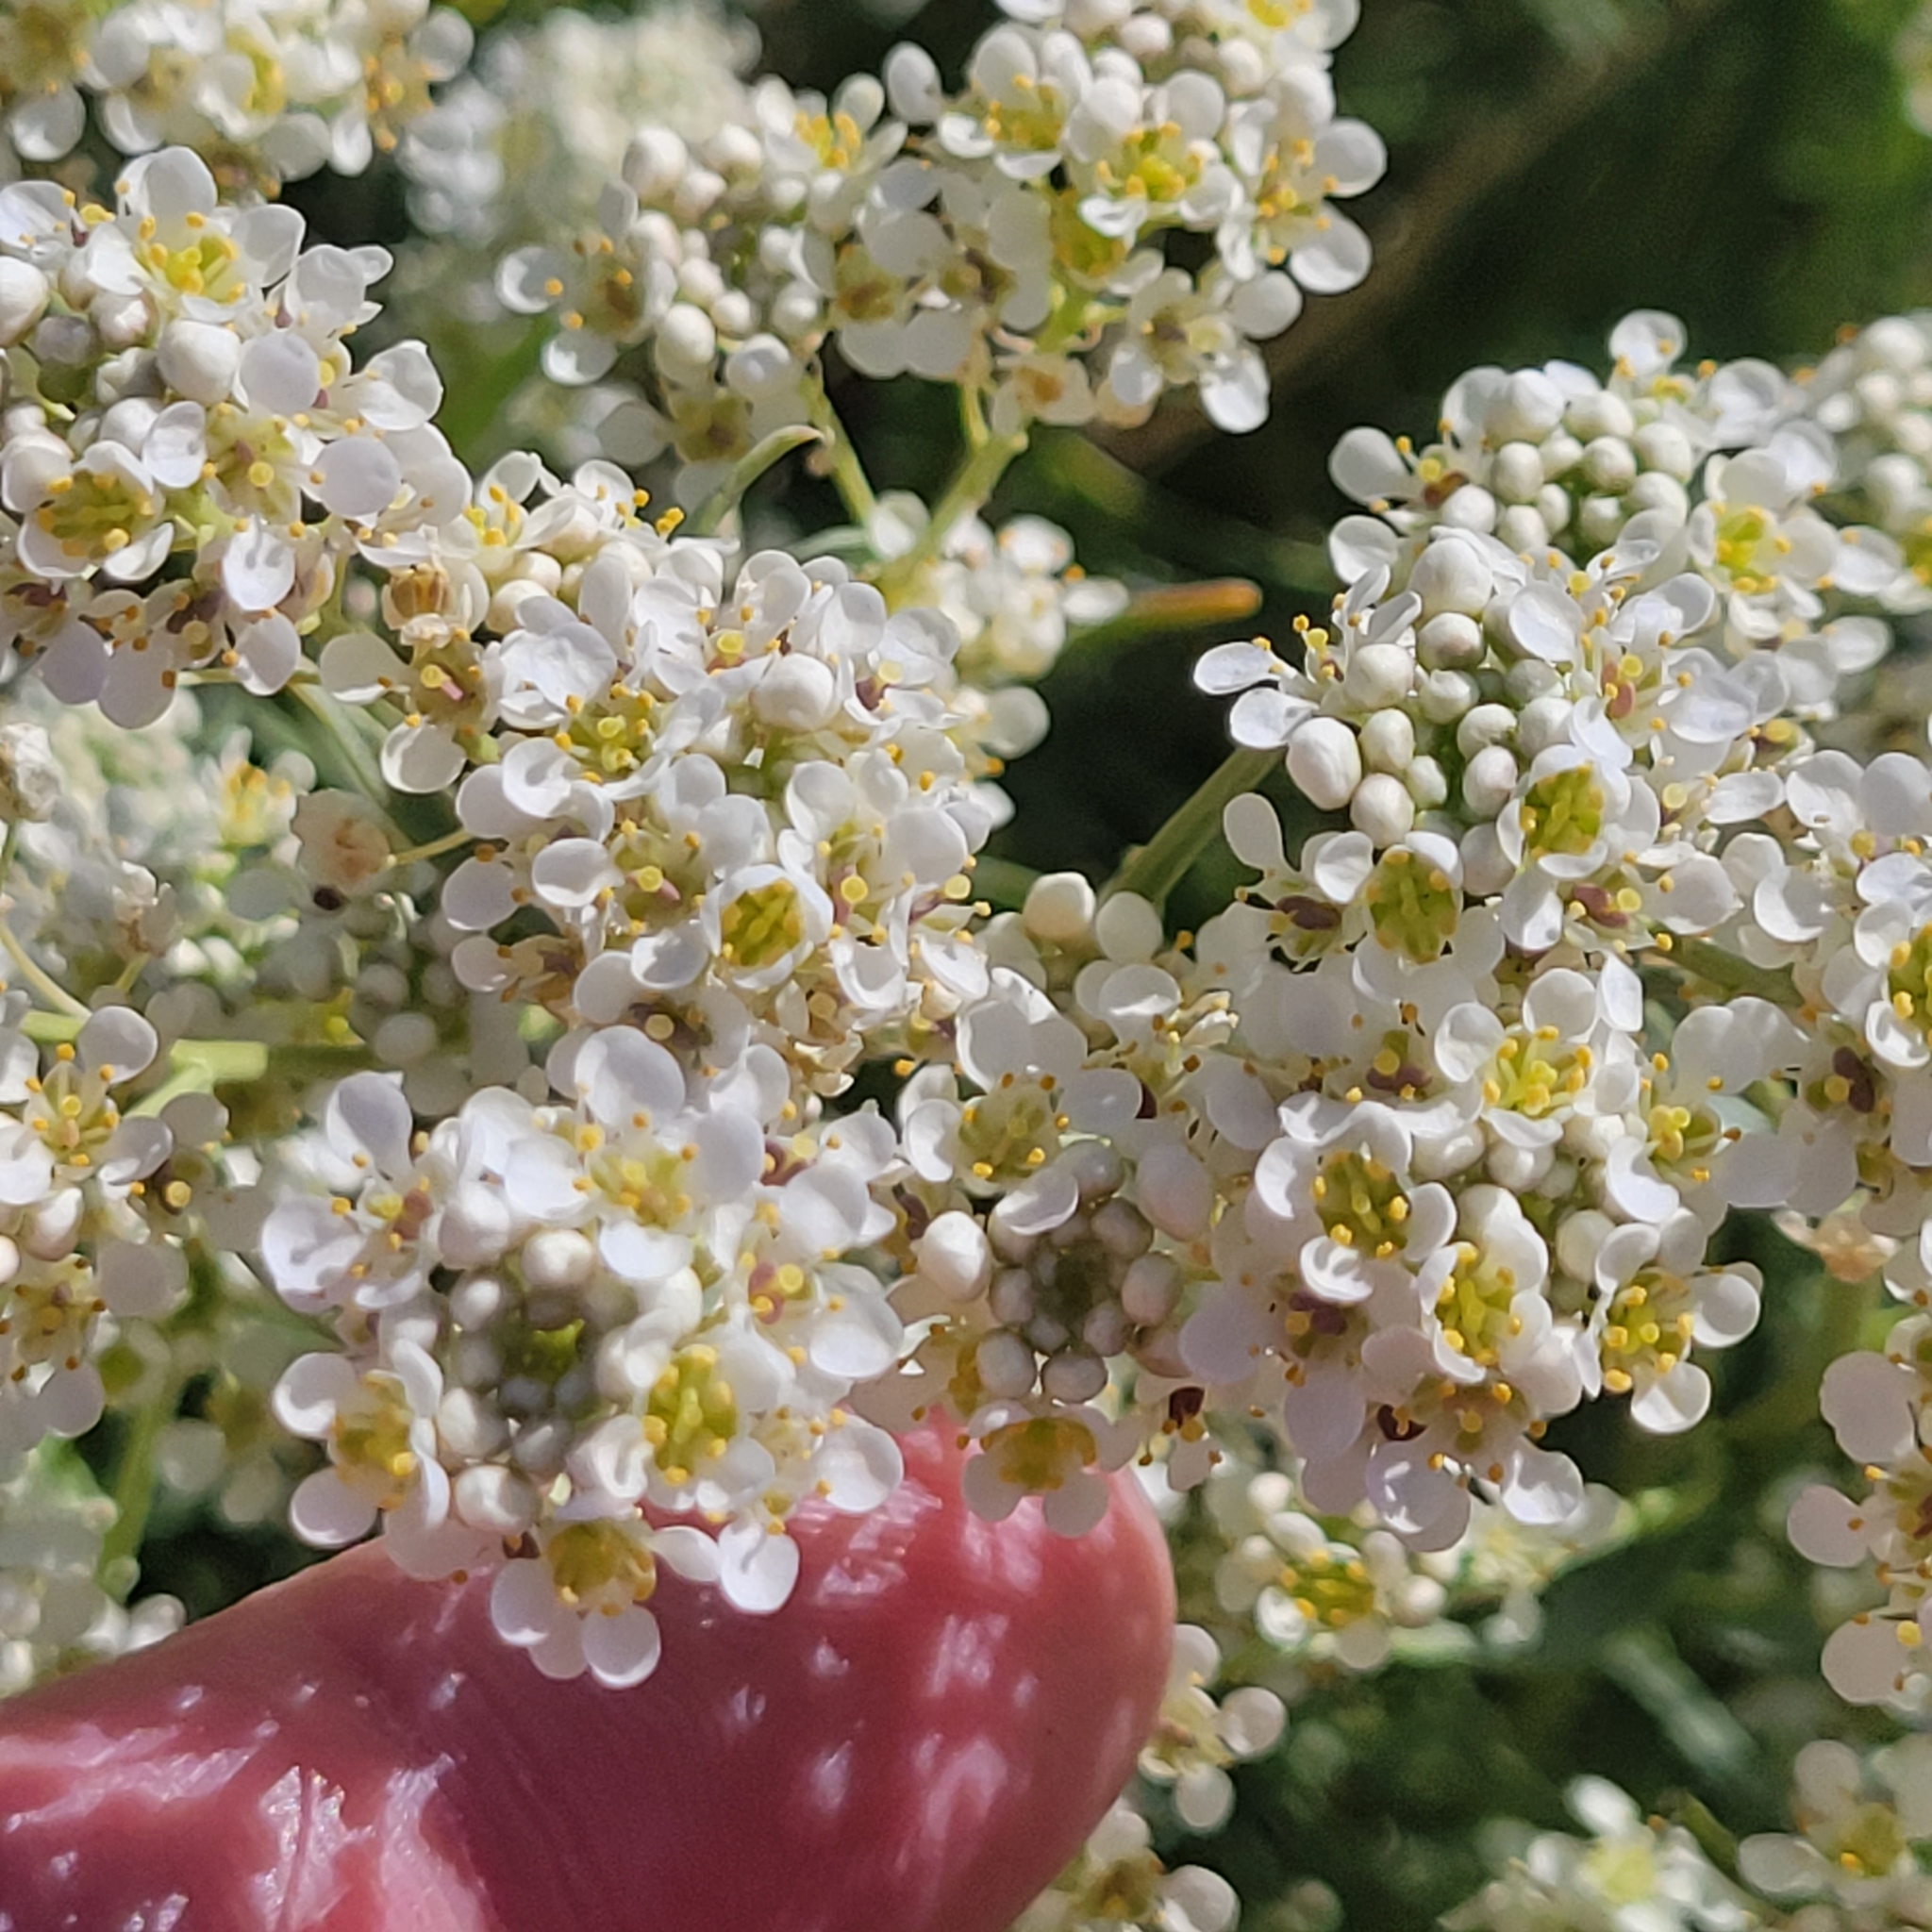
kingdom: Plantae
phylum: Tracheophyta
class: Magnoliopsida
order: Brassicales
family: Brassicaceae
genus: Lepidium
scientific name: Lepidium fremontii
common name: Fremont's pepperwort
